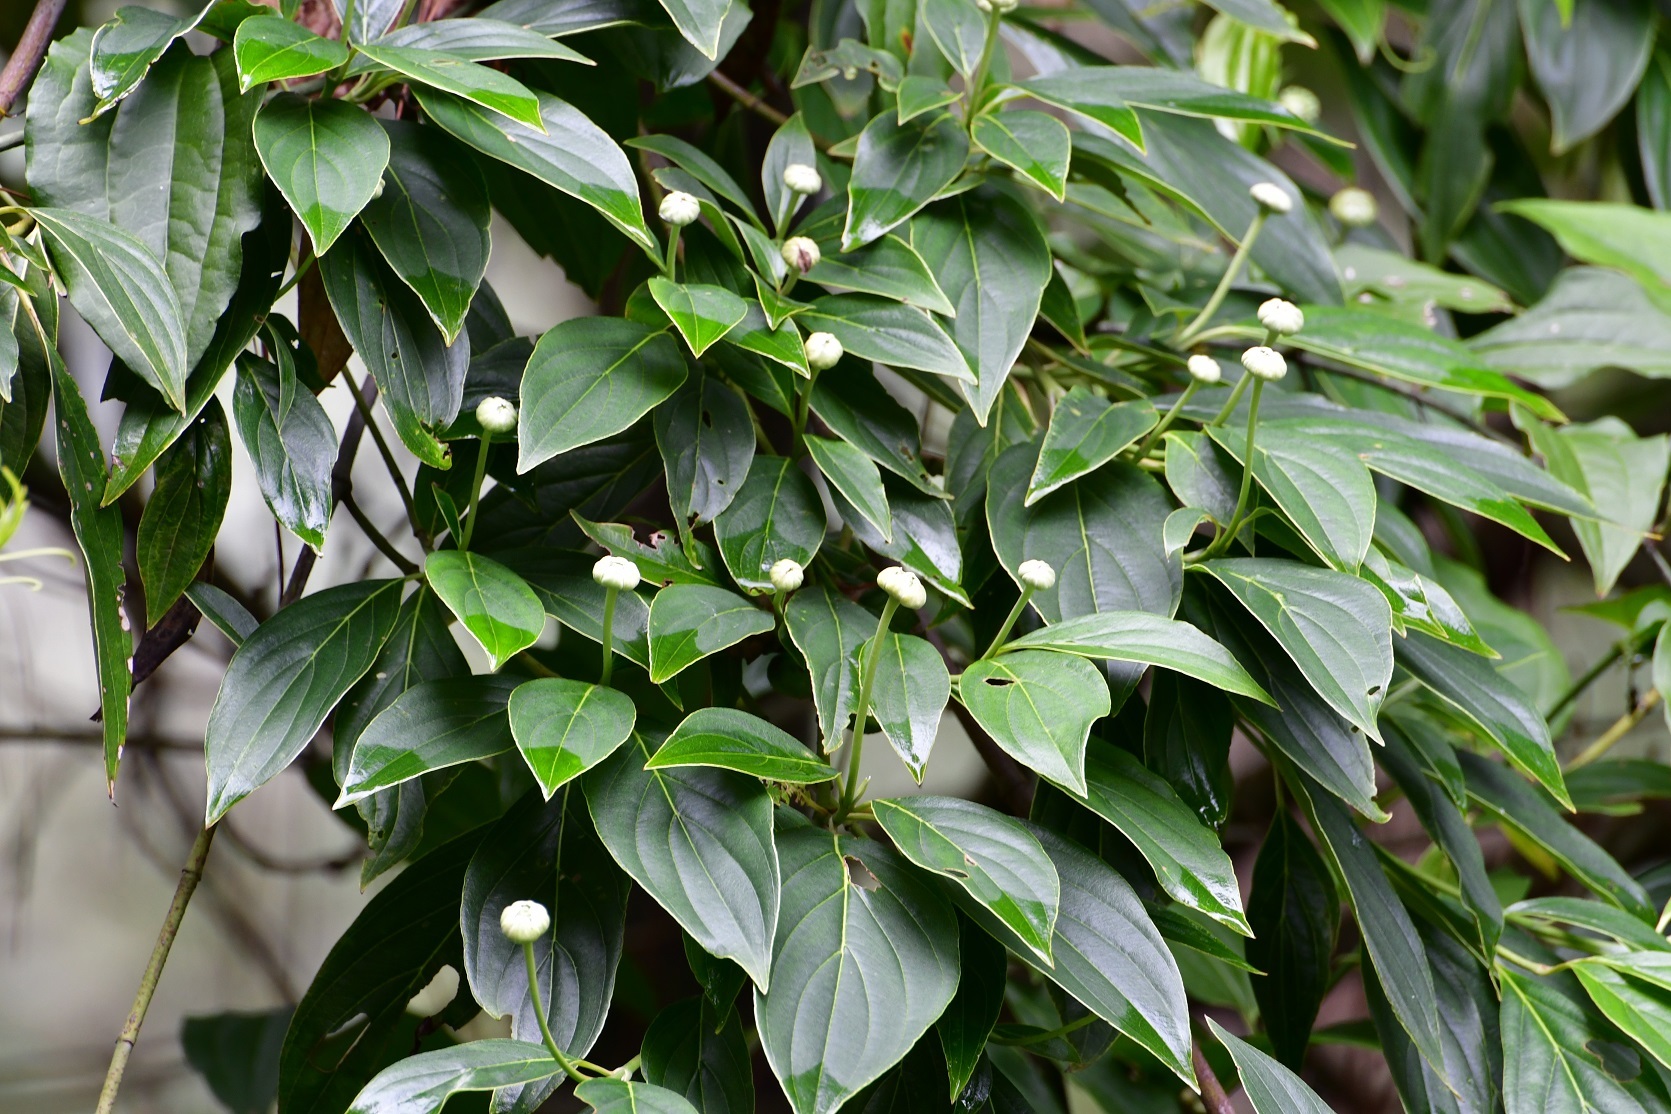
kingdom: Plantae
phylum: Tracheophyta
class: Magnoliopsida
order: Cornales
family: Cornaceae
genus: Cornus
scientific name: Cornus disciflora
